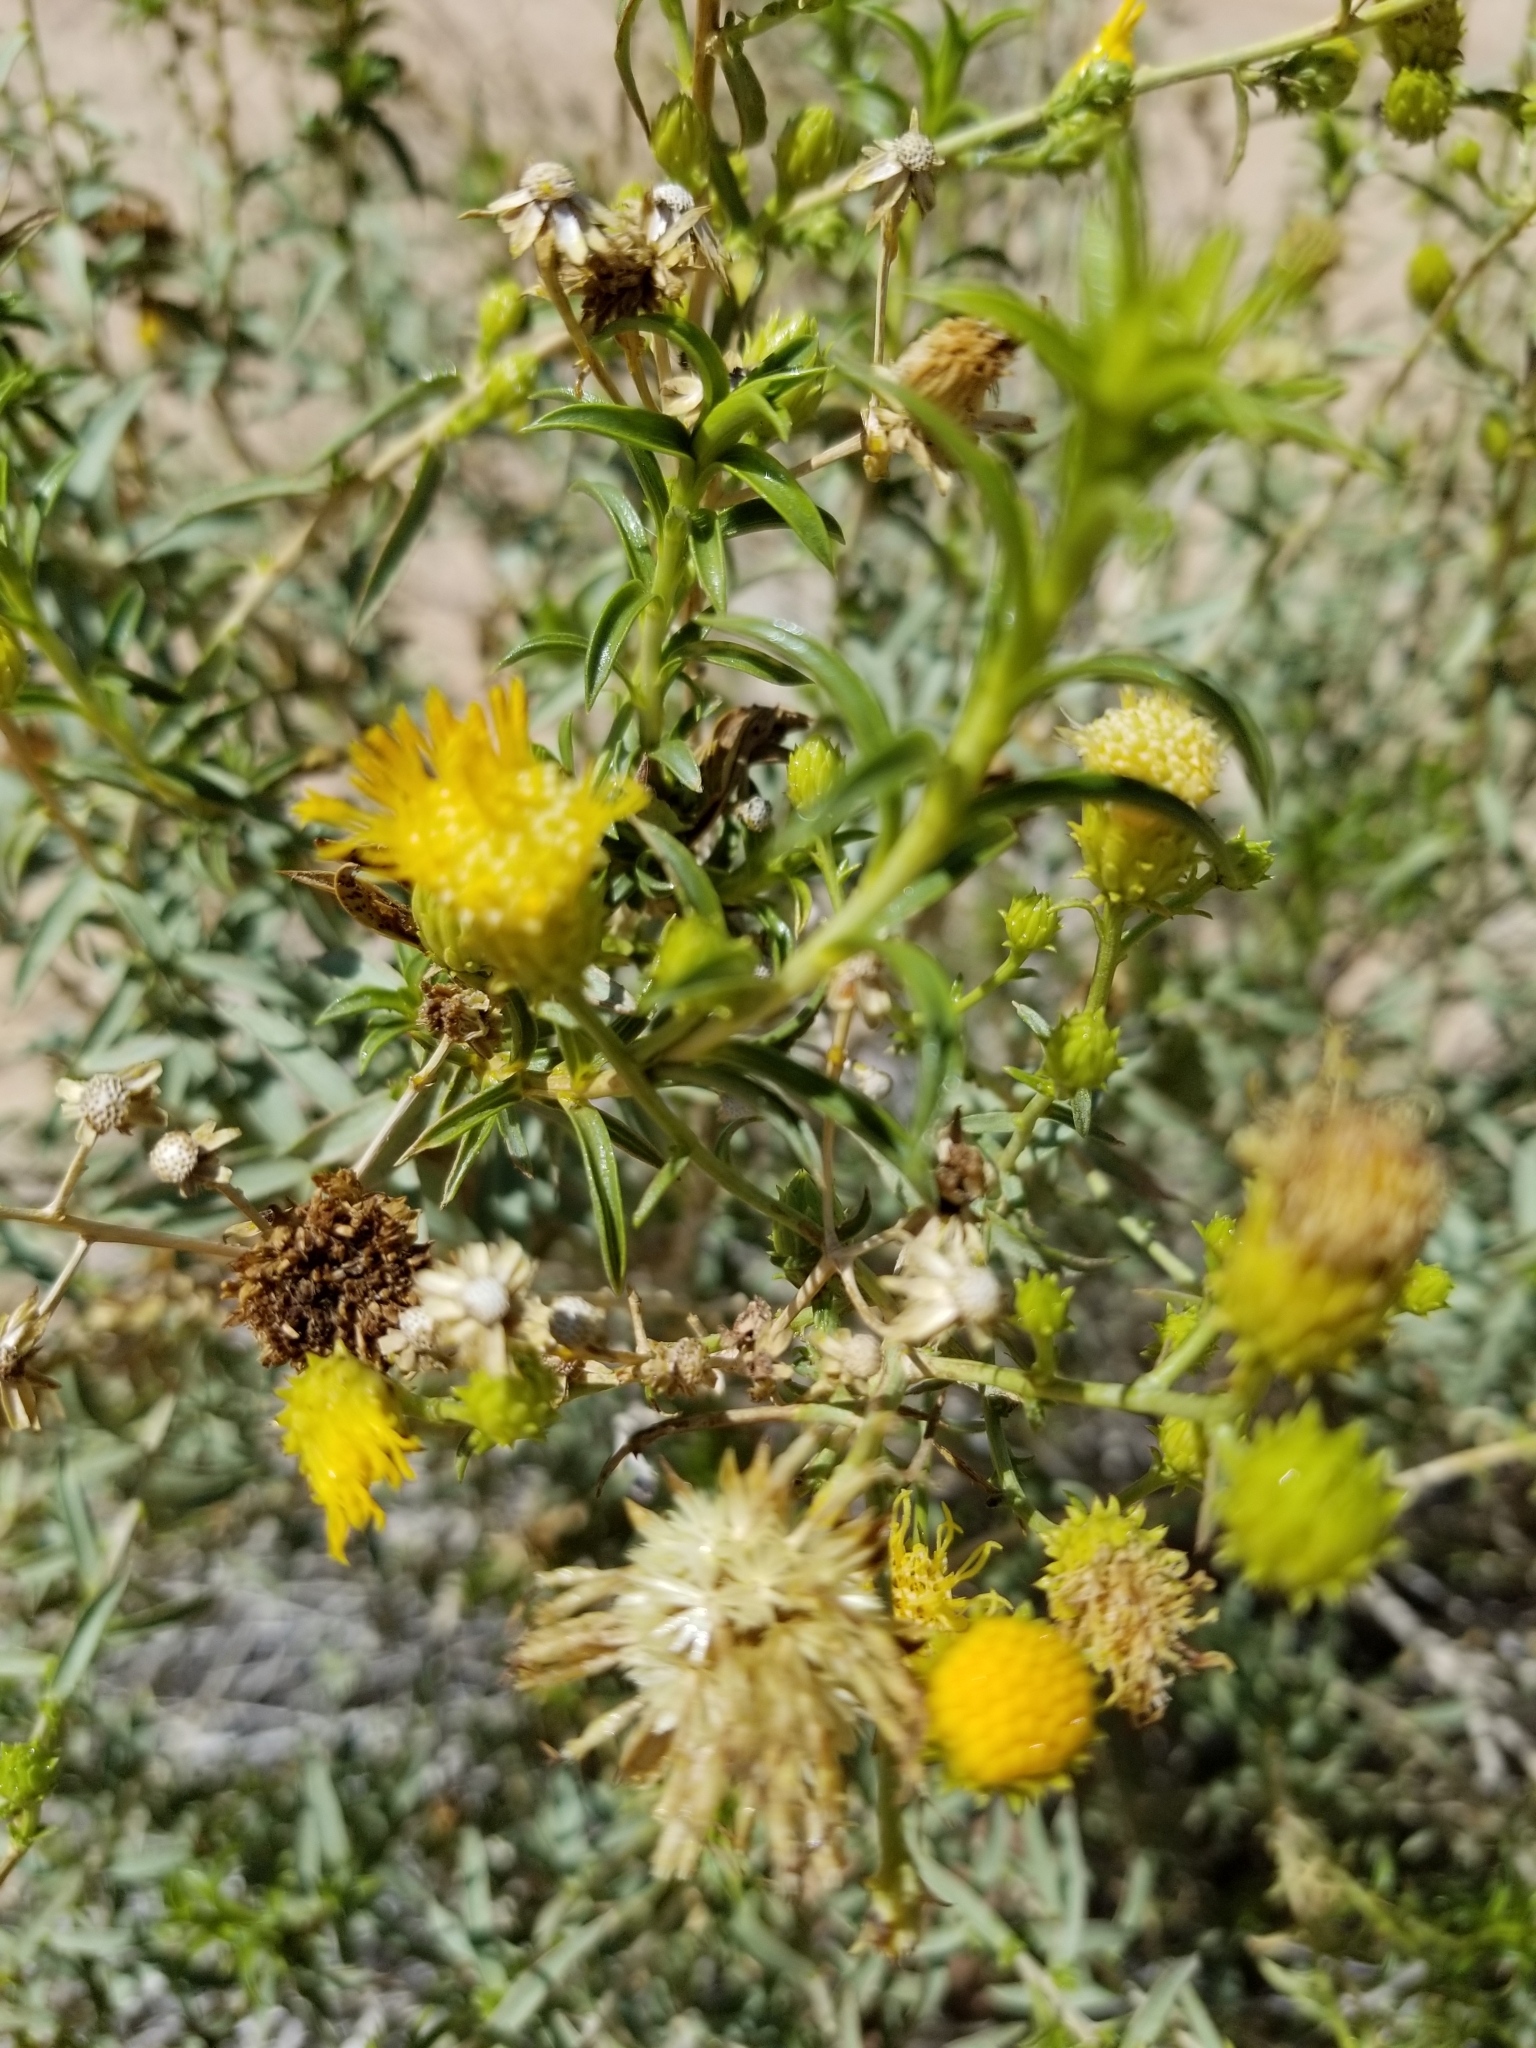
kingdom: Plantae
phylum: Tracheophyta
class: Magnoliopsida
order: Asterales
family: Asteraceae
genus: Senecio
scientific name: Senecio flaccidus
